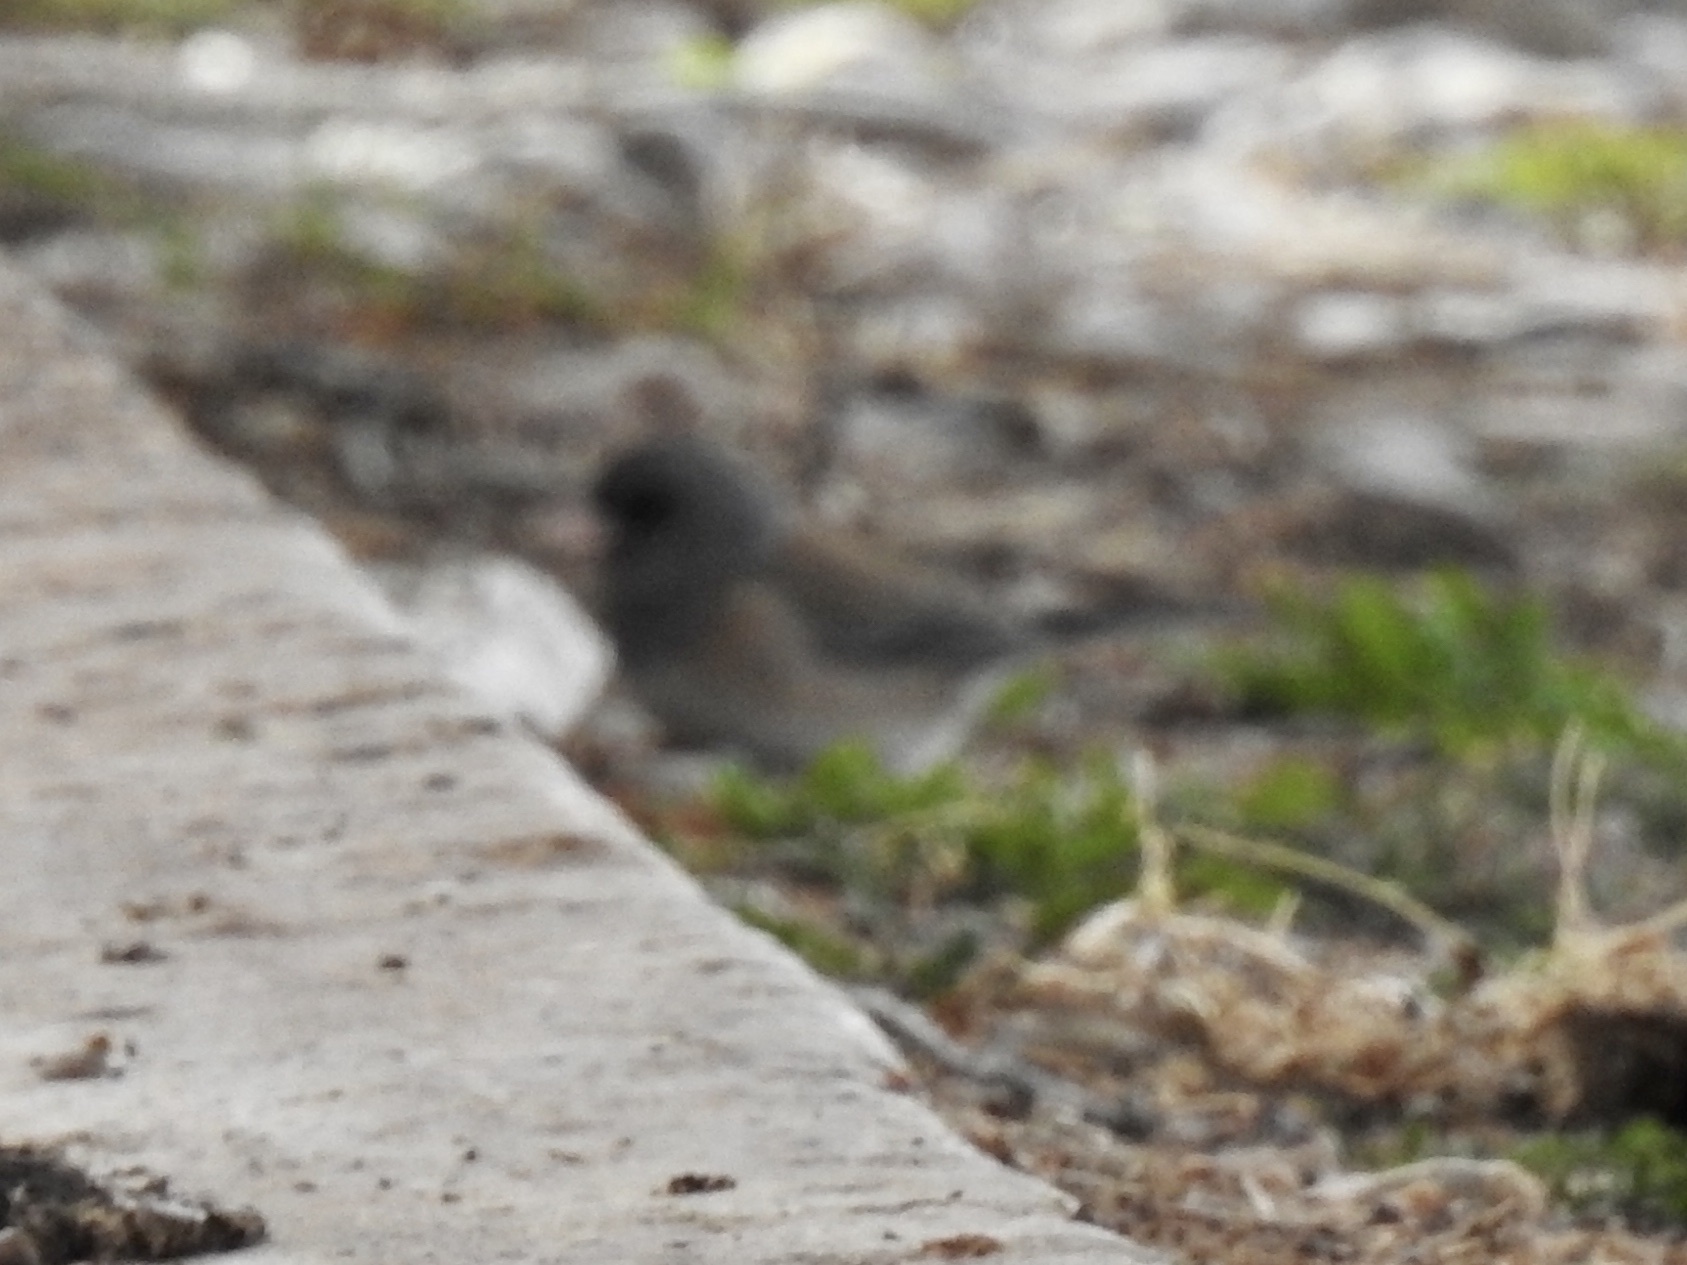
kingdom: Animalia
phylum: Chordata
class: Aves
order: Passeriformes
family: Passerellidae
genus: Junco
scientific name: Junco hyemalis
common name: Dark-eyed junco
